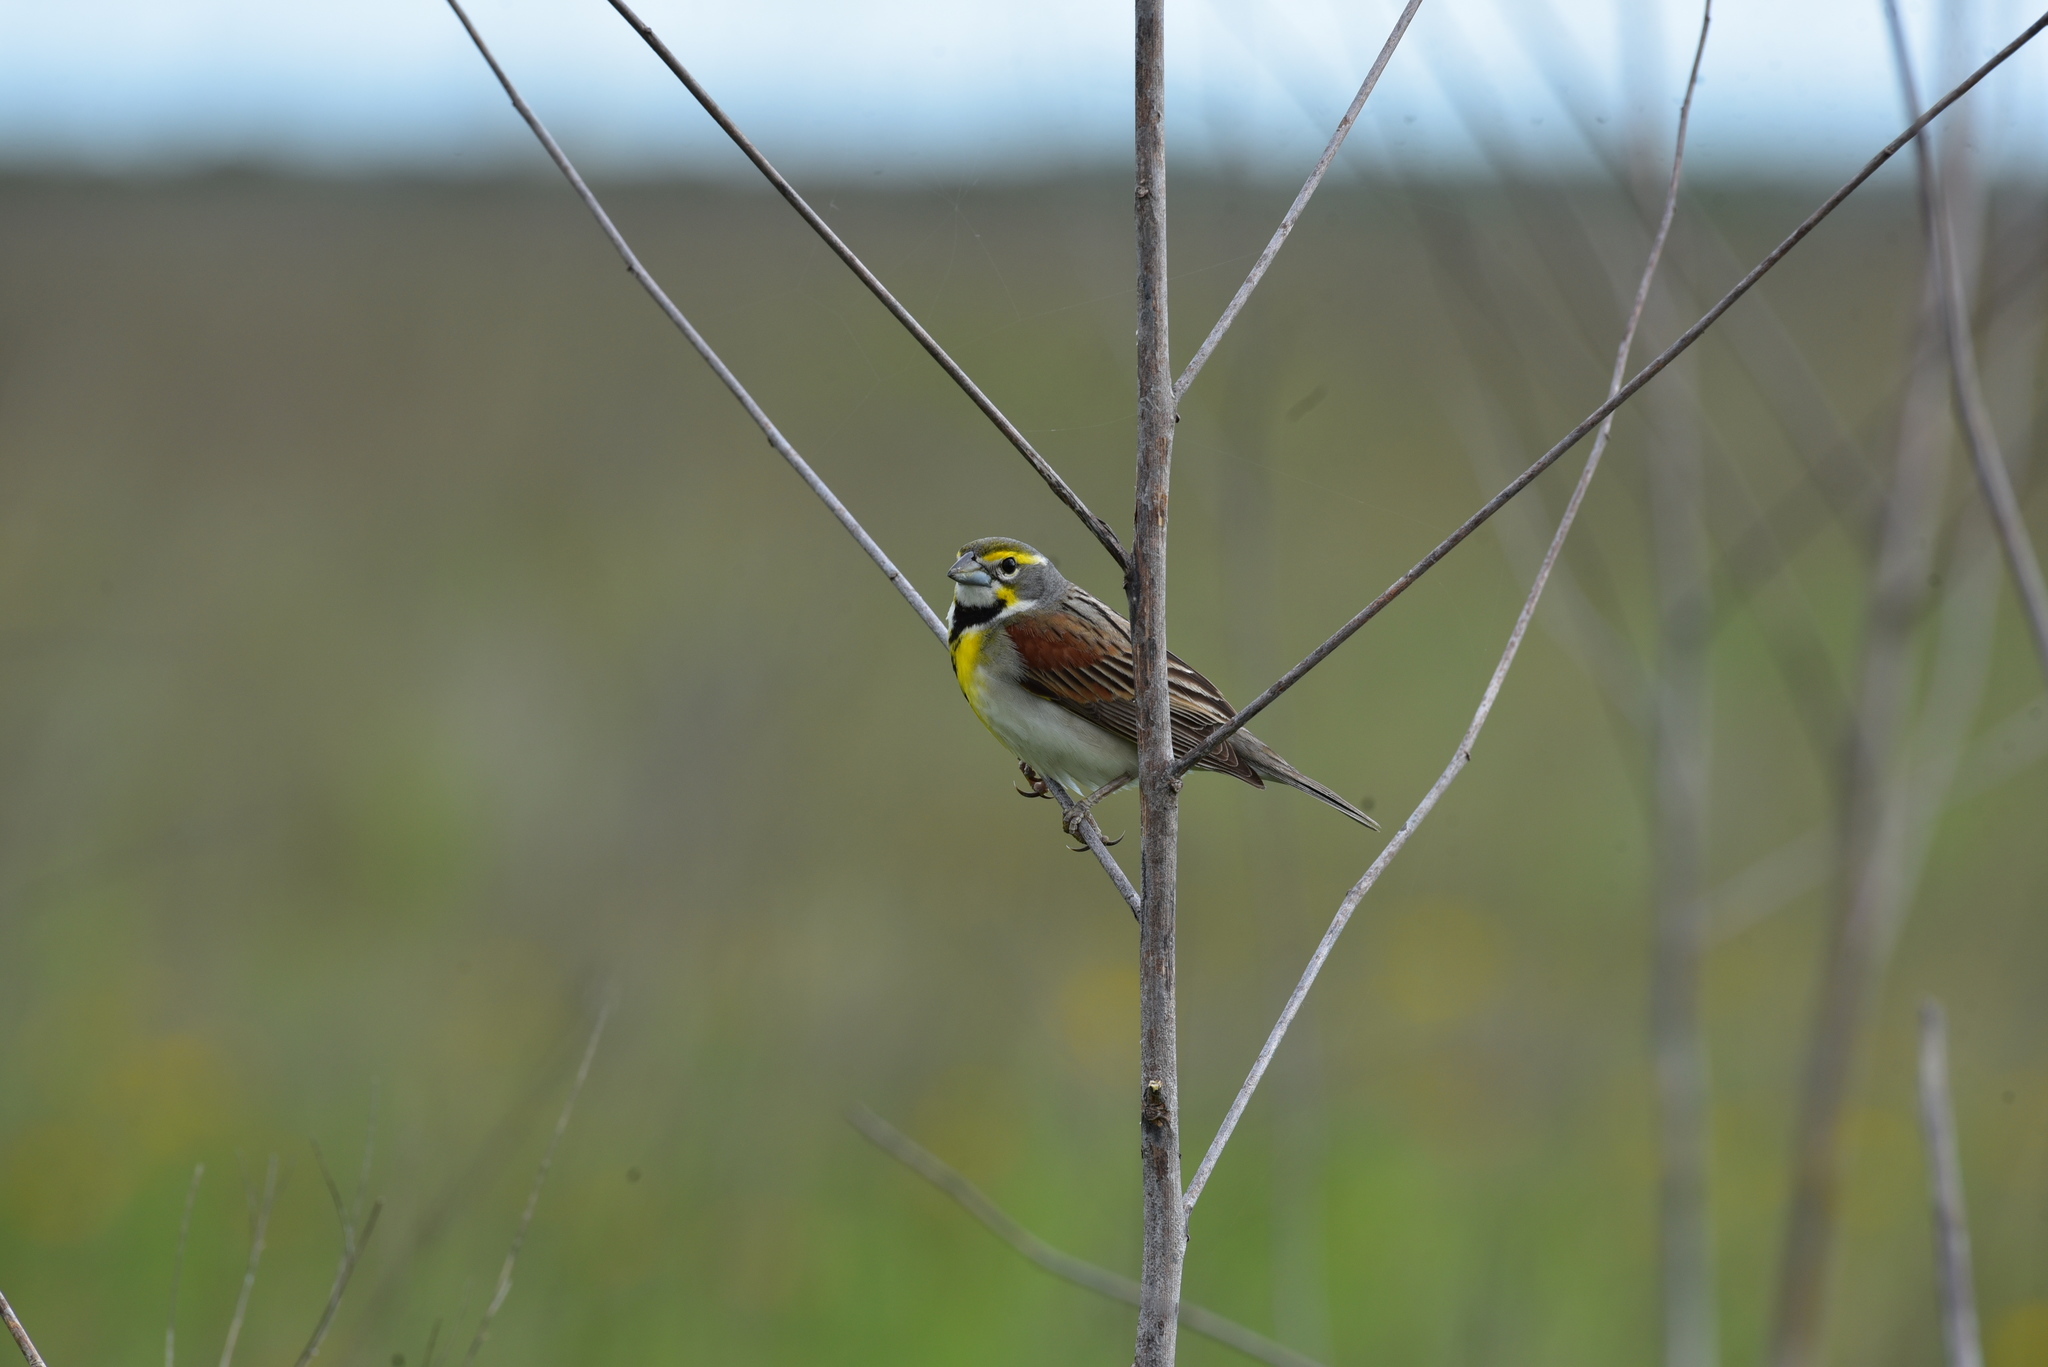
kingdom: Animalia
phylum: Chordata
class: Aves
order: Passeriformes
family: Cardinalidae
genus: Spiza
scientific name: Spiza americana
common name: Dickcissel
